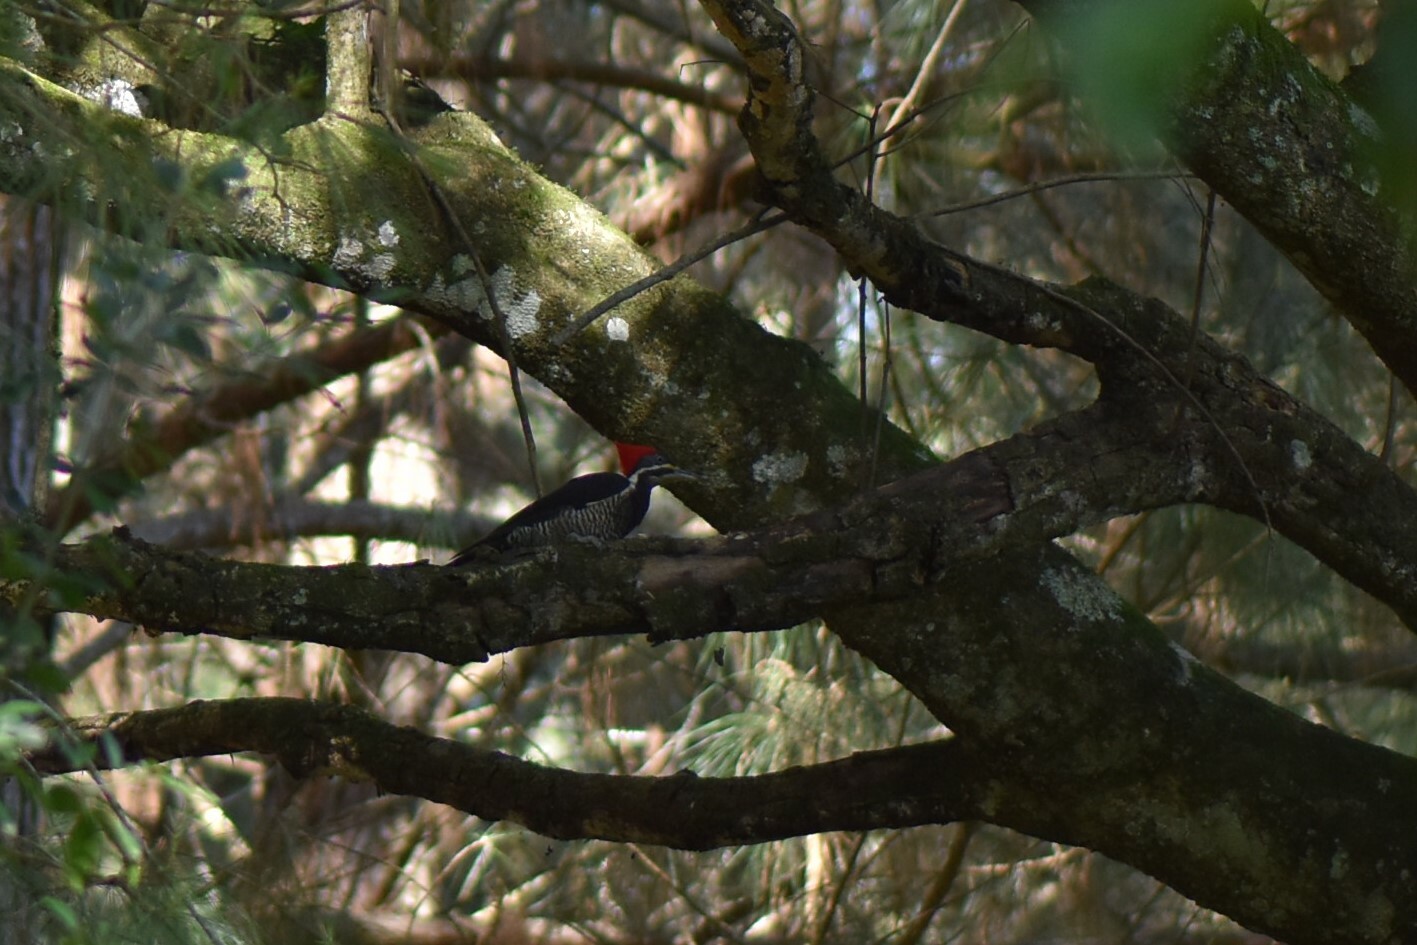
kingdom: Animalia
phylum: Chordata
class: Aves
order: Piciformes
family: Picidae
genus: Dryocopus
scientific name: Dryocopus lineatus
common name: Lineated woodpecker
